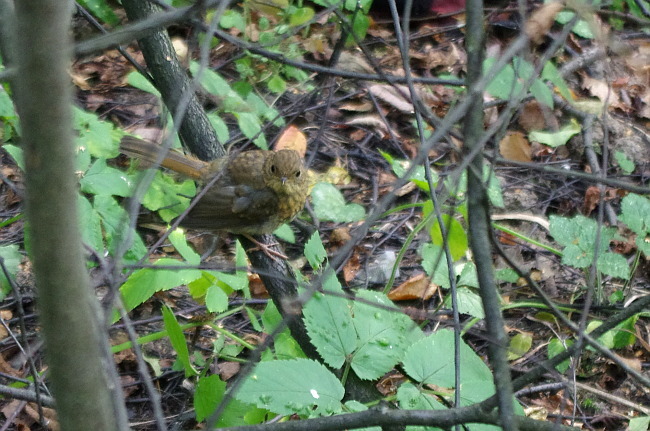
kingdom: Animalia
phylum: Chordata
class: Aves
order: Passeriformes
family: Muscicapidae
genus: Erithacus
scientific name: Erithacus rubecula
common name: European robin
